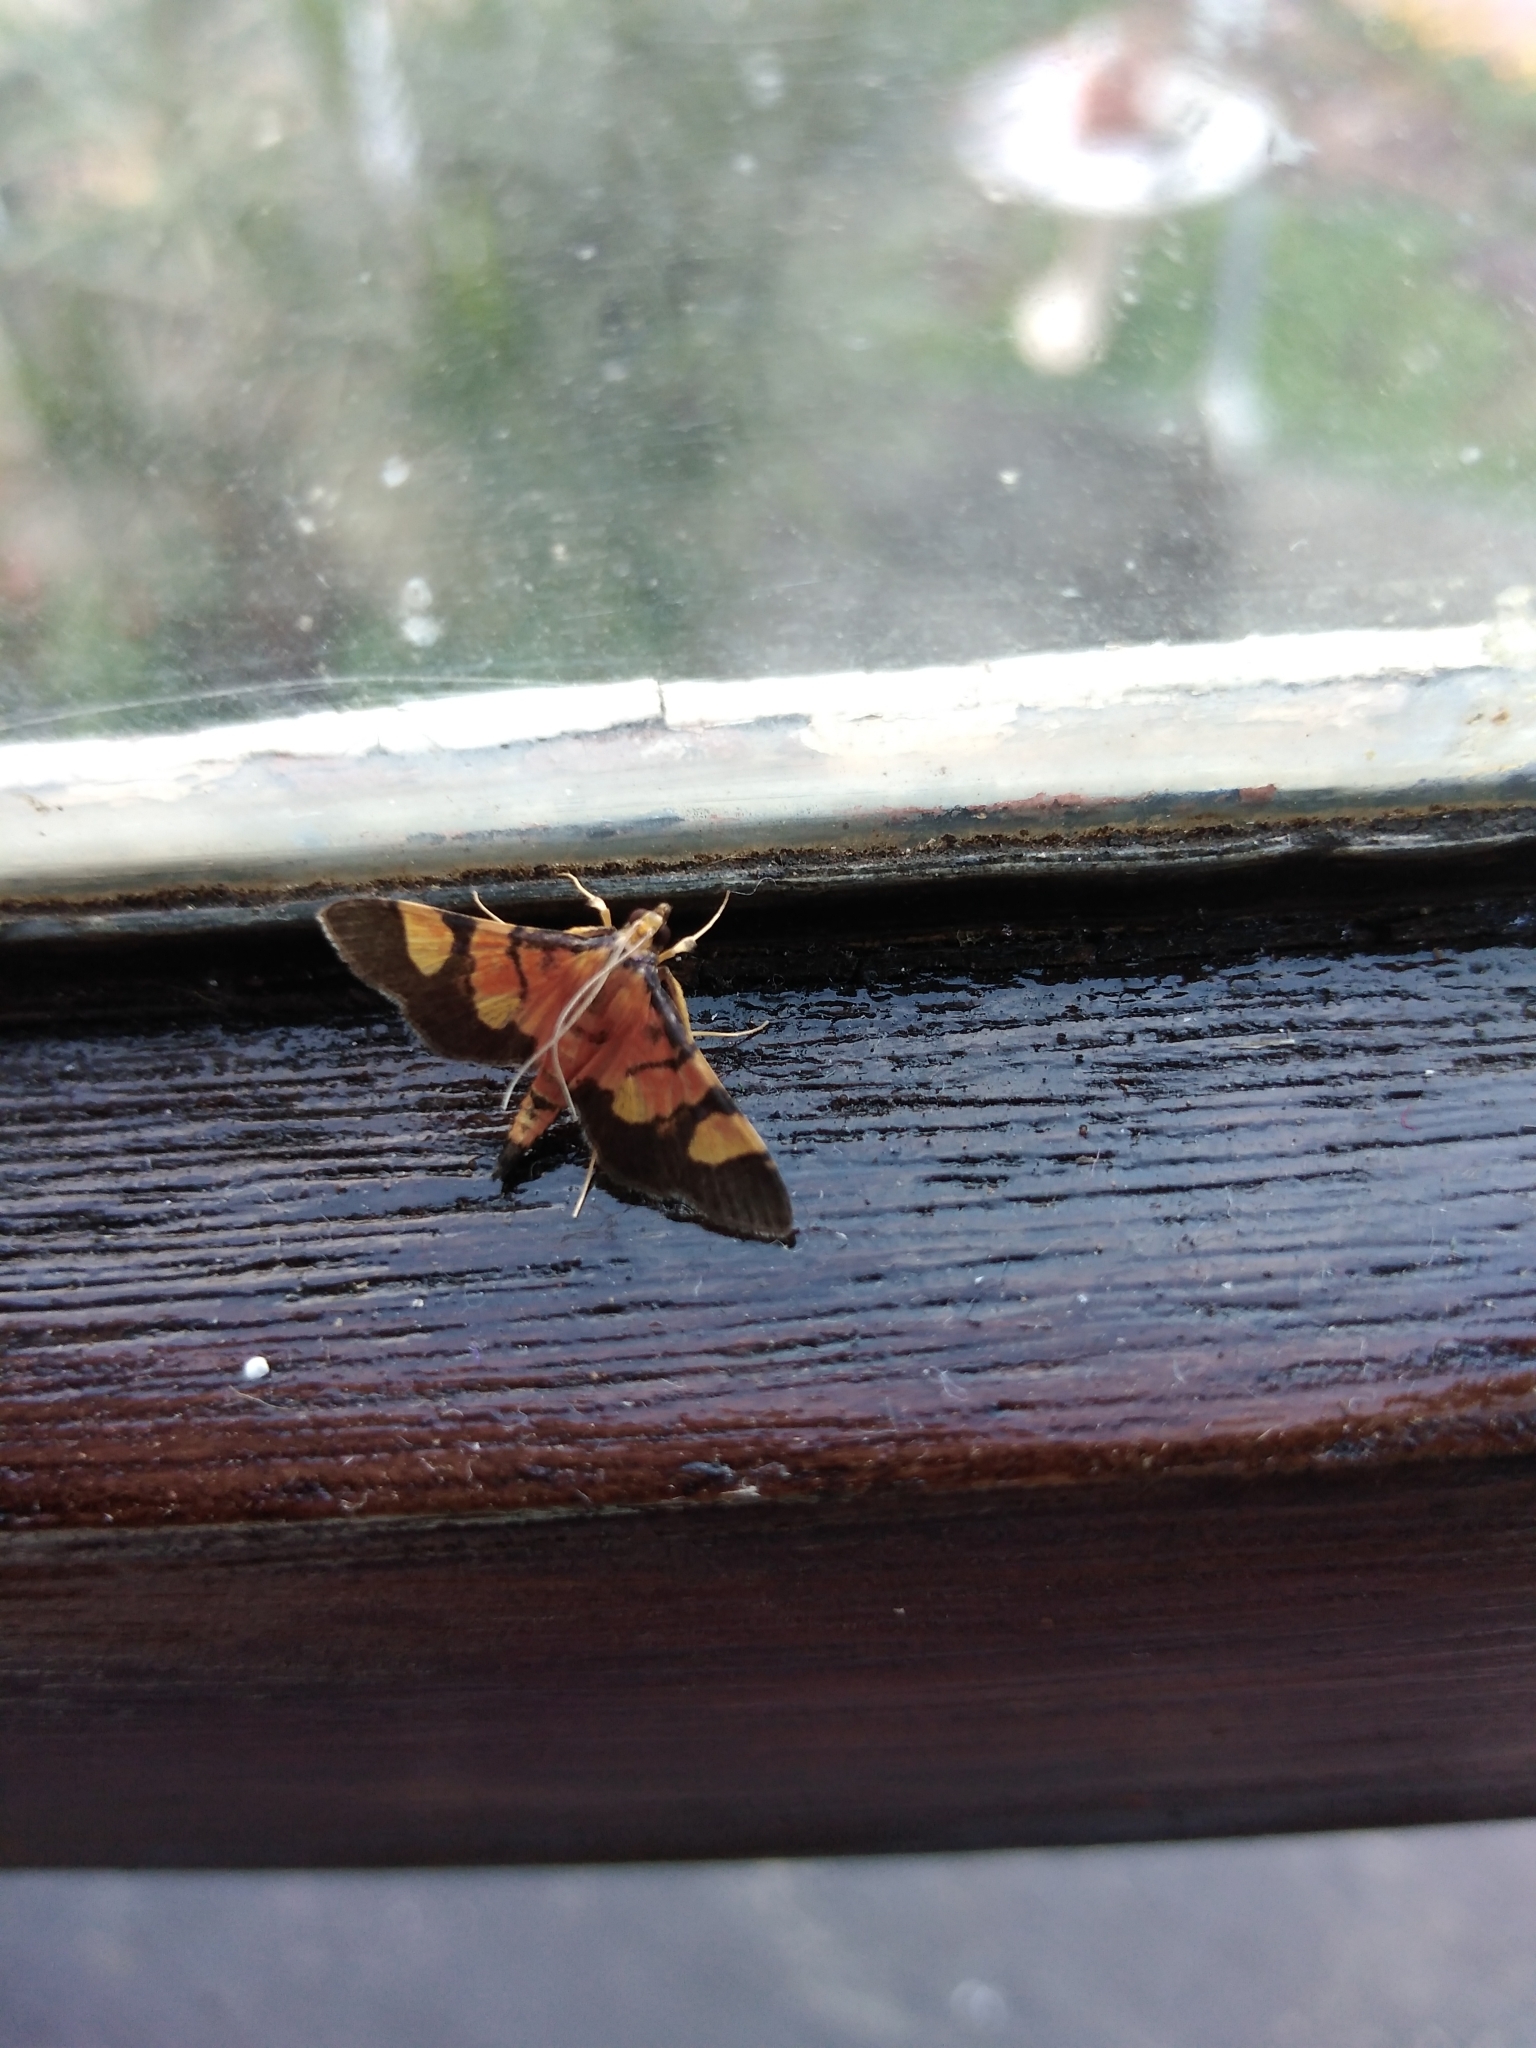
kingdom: Animalia
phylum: Arthropoda
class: Insecta
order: Lepidoptera
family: Crambidae
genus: Aethaloessa
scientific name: Aethaloessa floridalis
